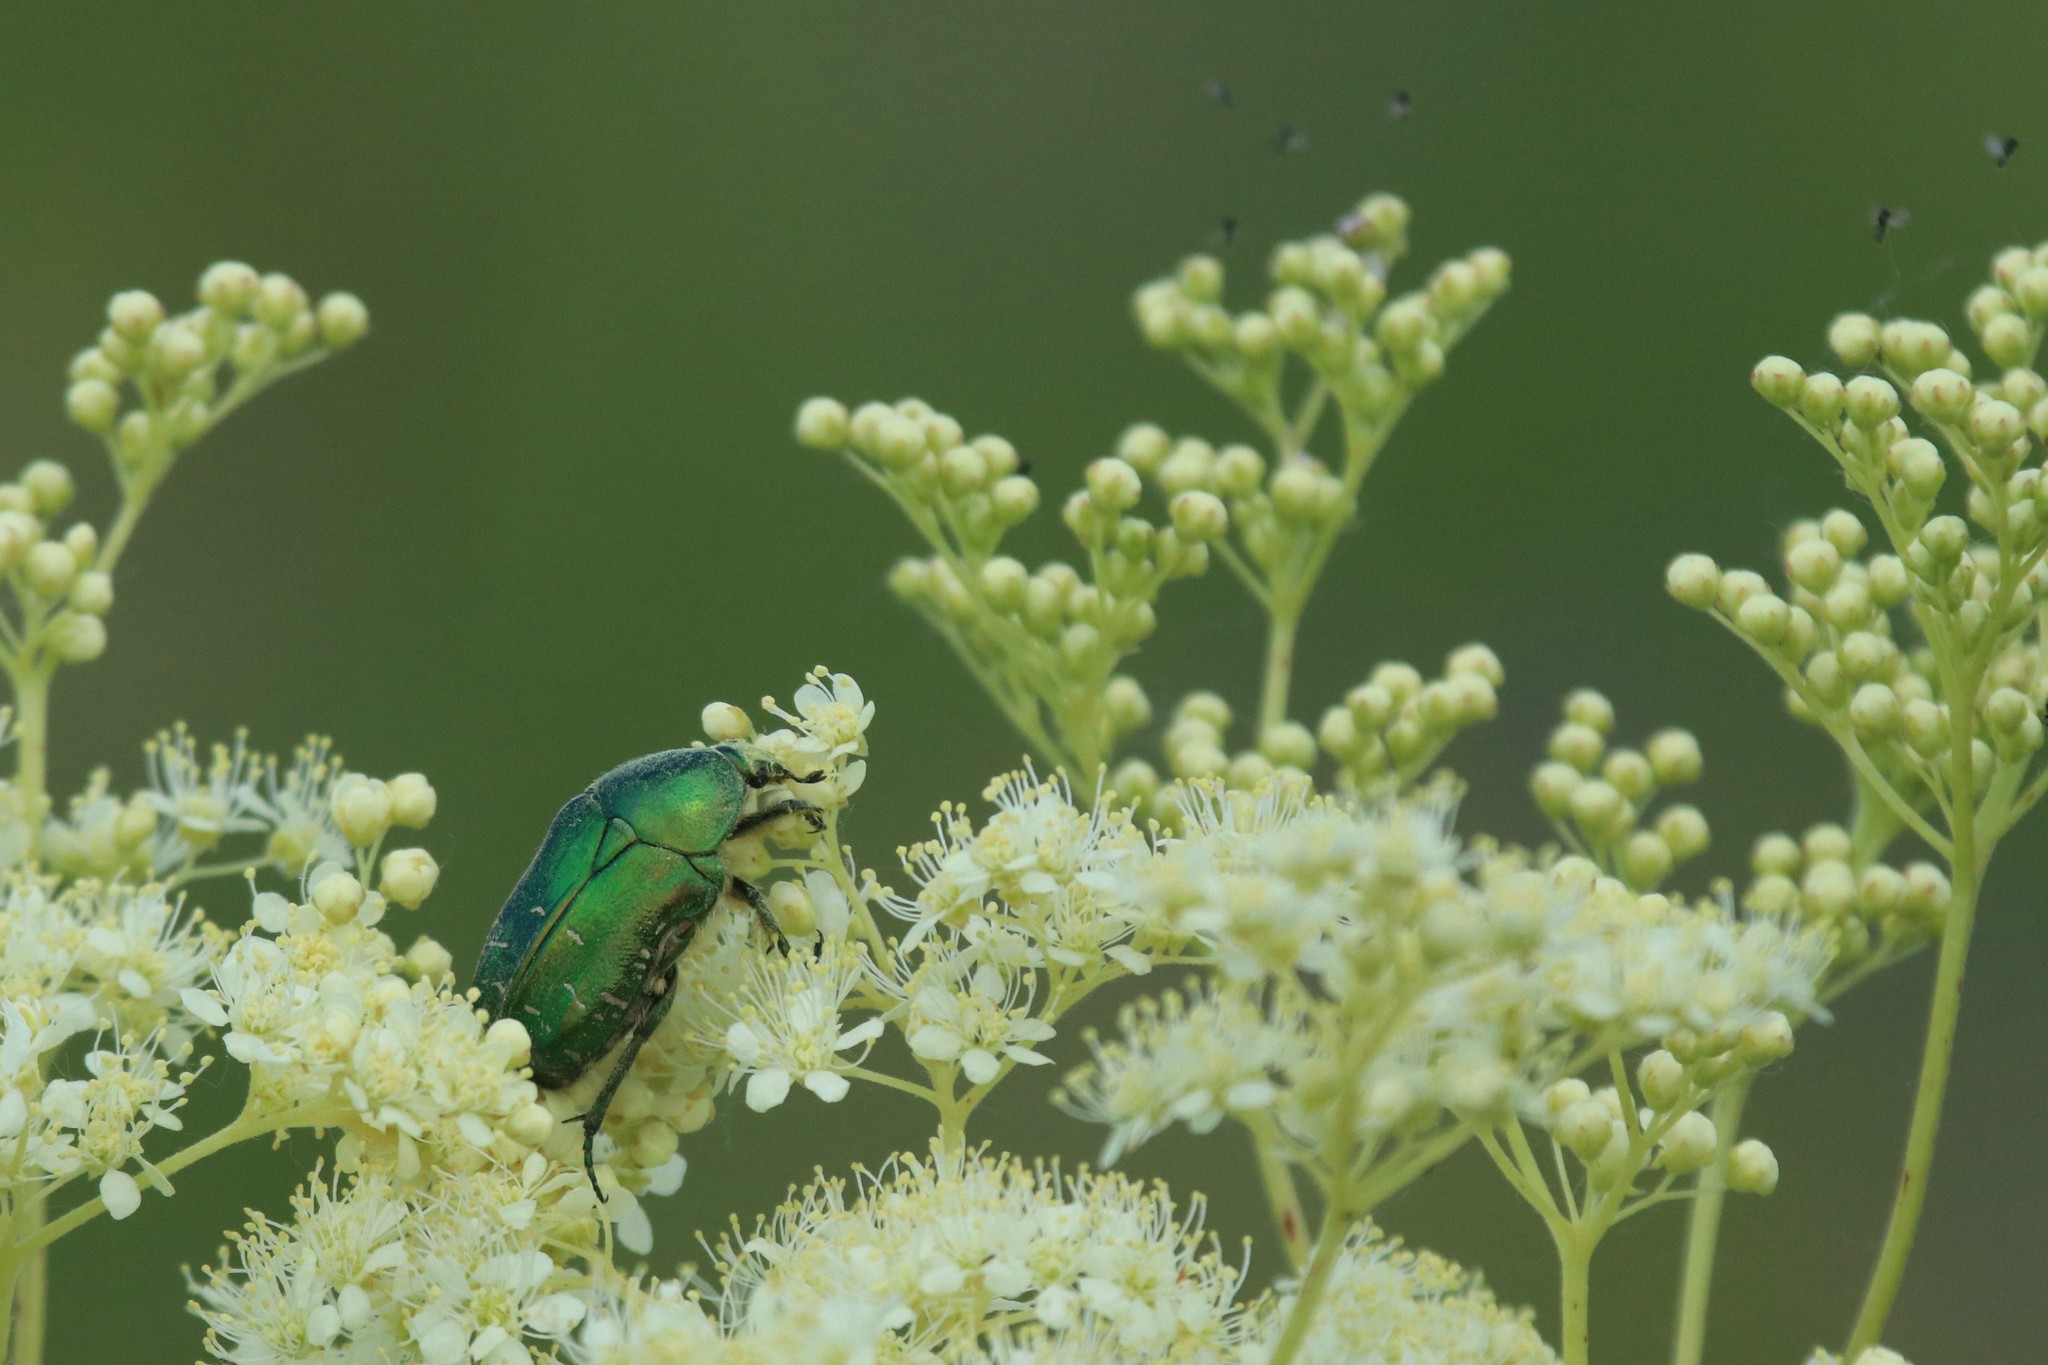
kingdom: Animalia
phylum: Arthropoda
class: Insecta
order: Coleoptera
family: Scarabaeidae
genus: Cetonia
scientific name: Cetonia aurata
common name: Rose chafer
